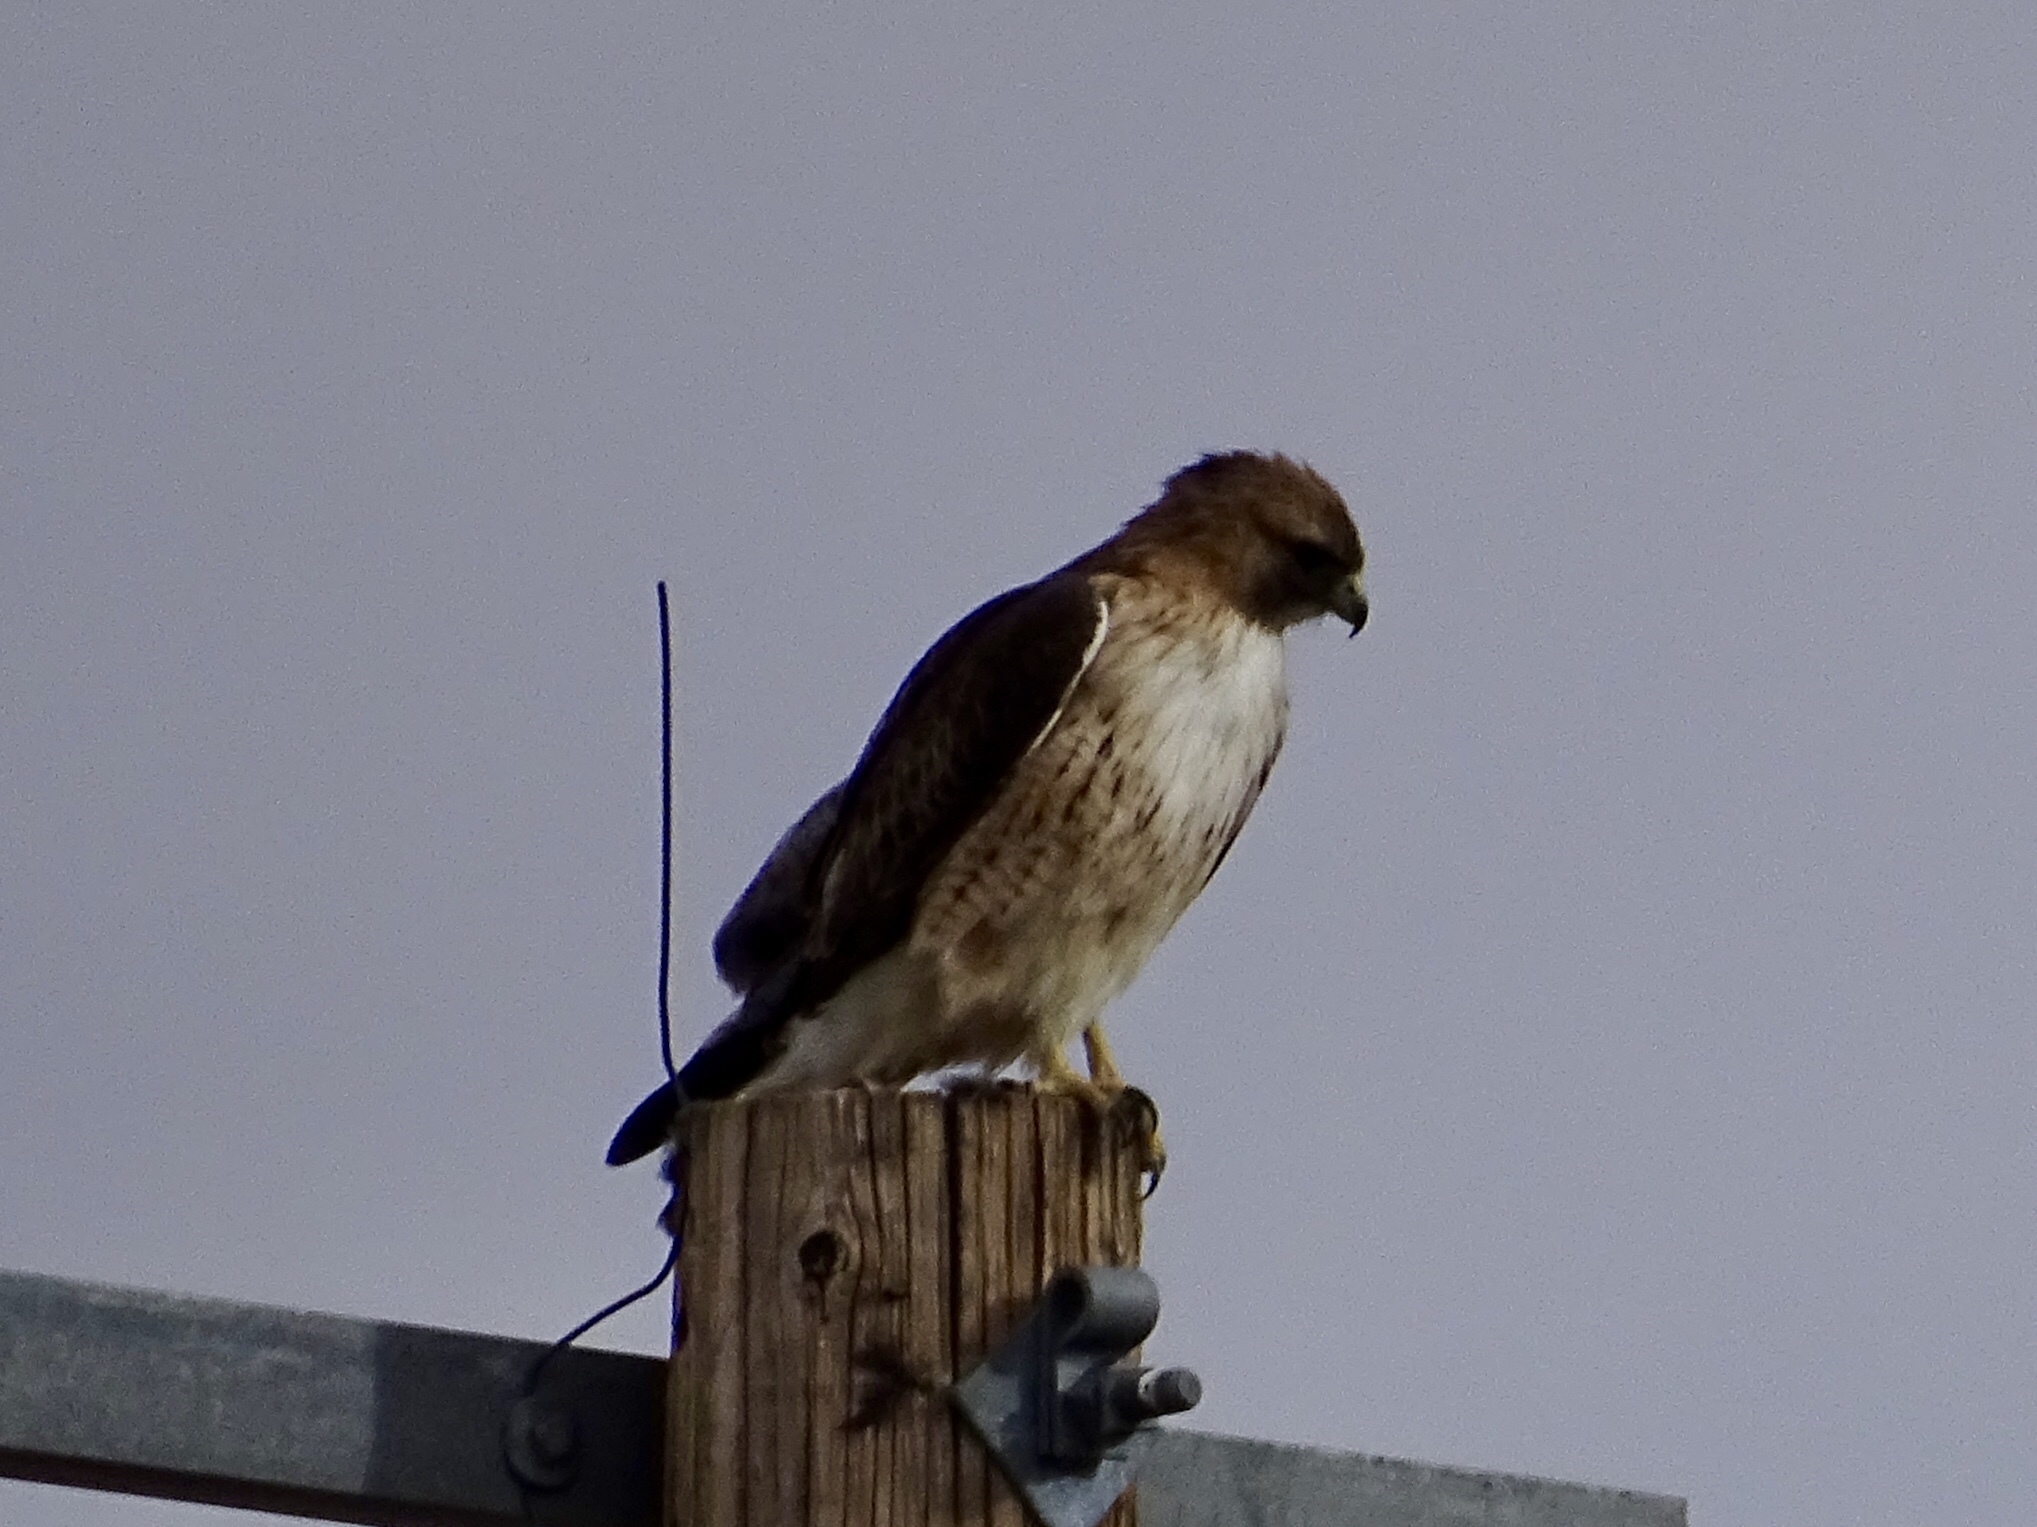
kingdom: Animalia
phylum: Chordata
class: Aves
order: Accipitriformes
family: Accipitridae
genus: Buteo
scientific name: Buteo jamaicensis
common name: Red-tailed hawk
